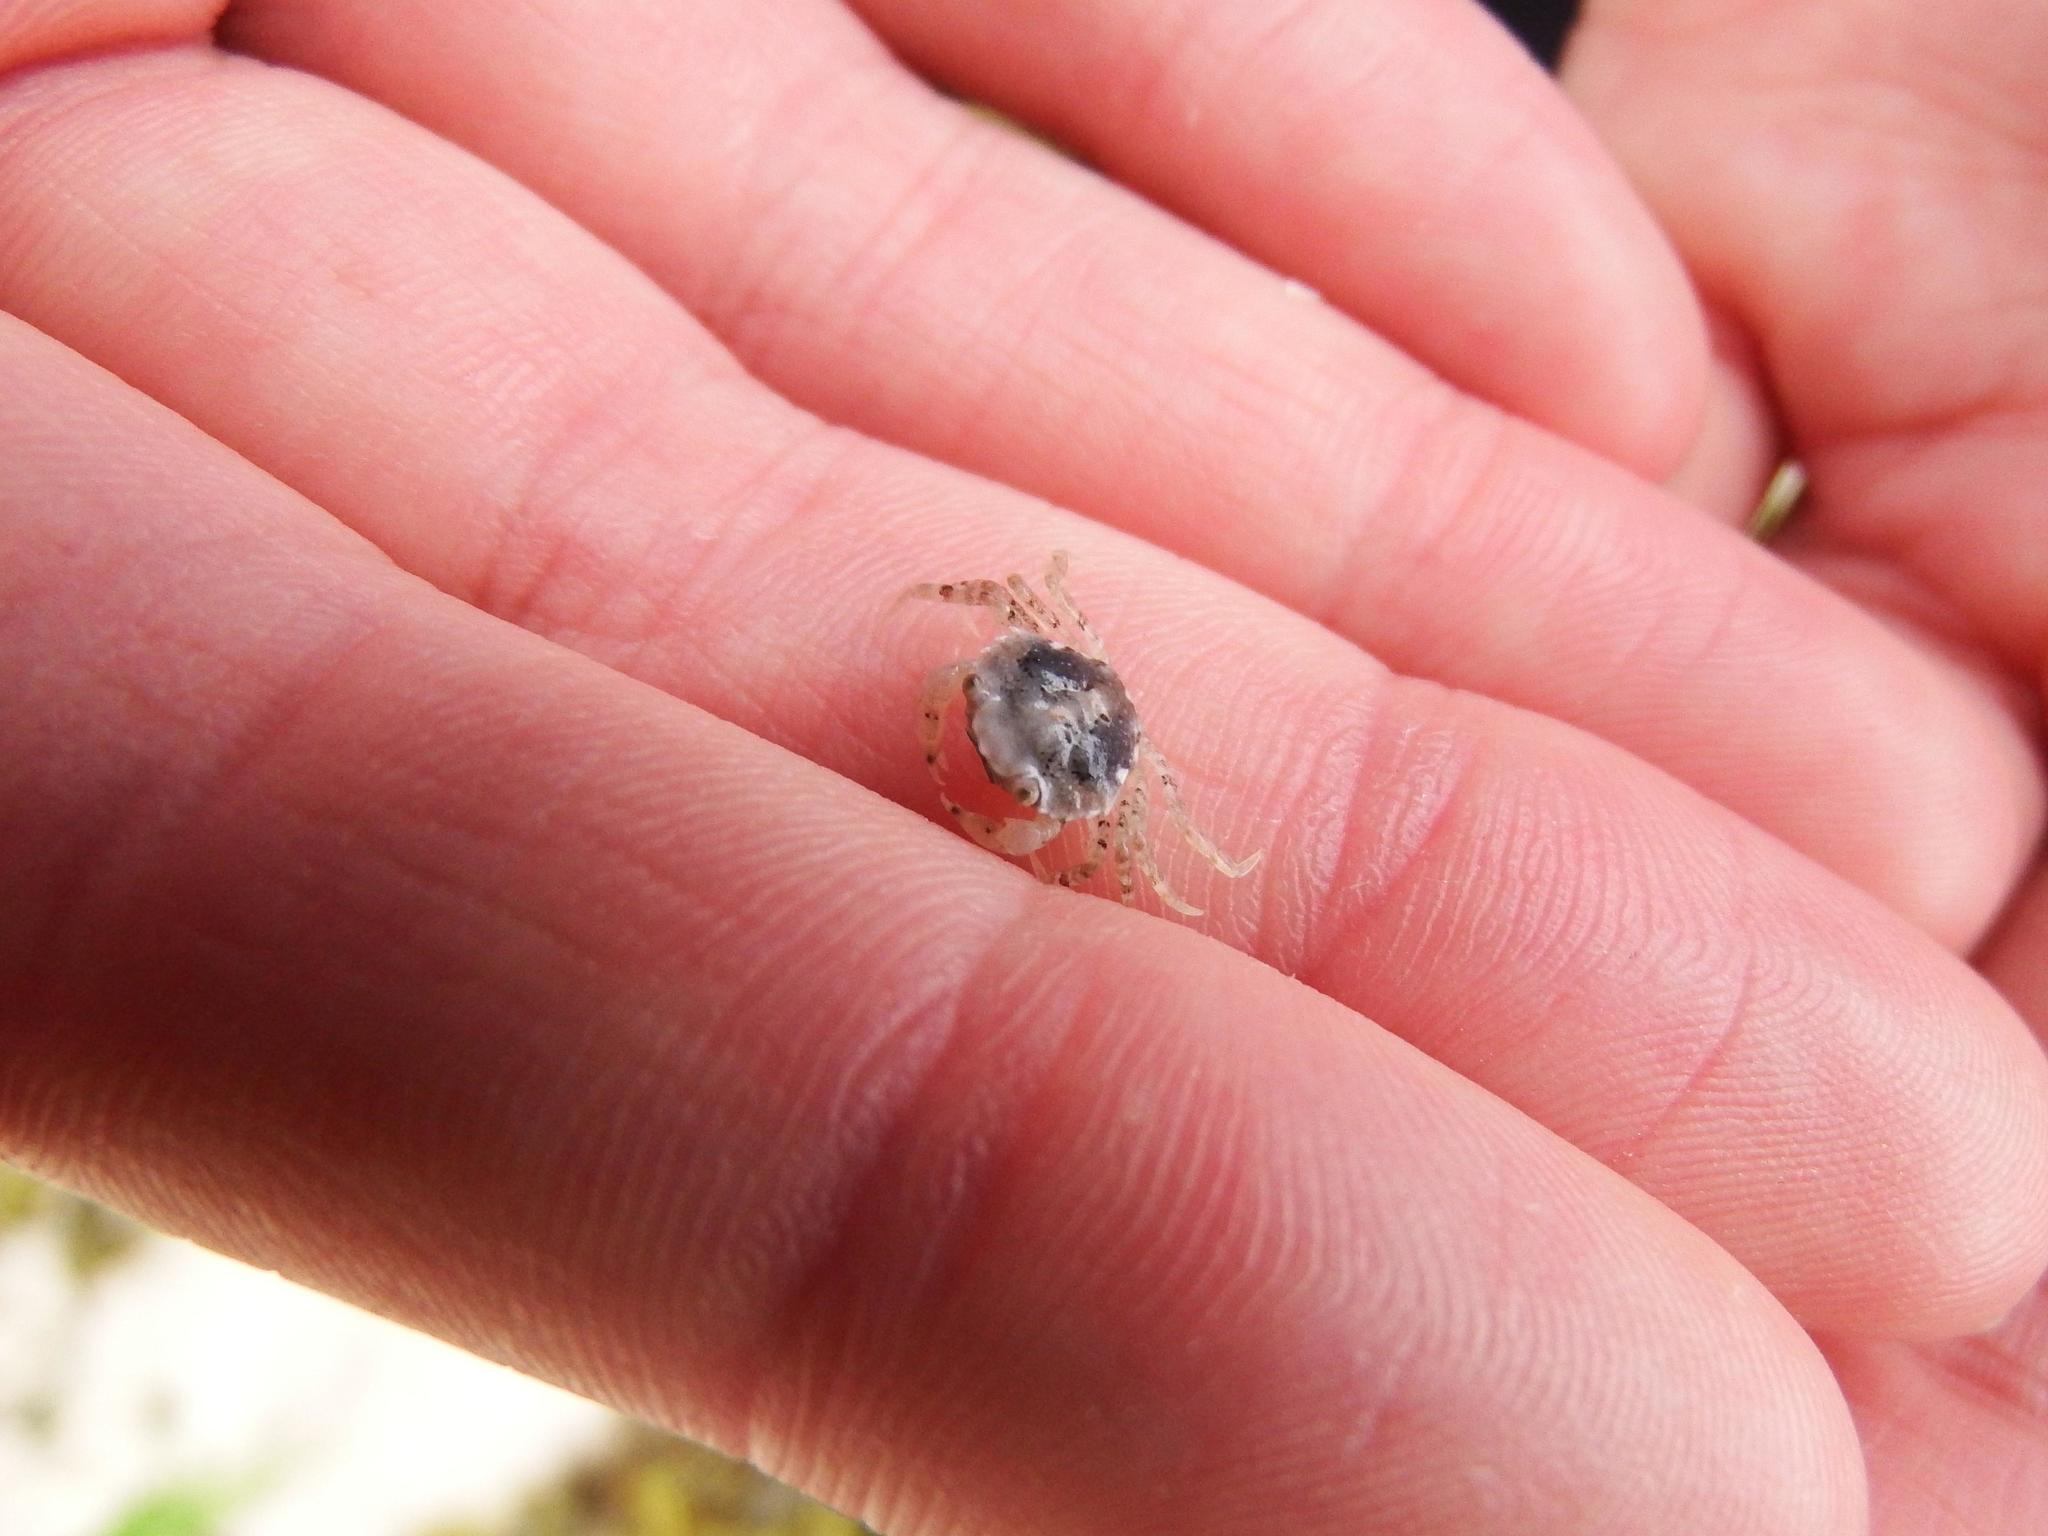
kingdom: Animalia
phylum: Arthropoda
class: Malacostraca
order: Decapoda
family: Carcinidae
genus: Carcinus
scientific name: Carcinus maenas
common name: European green crab
